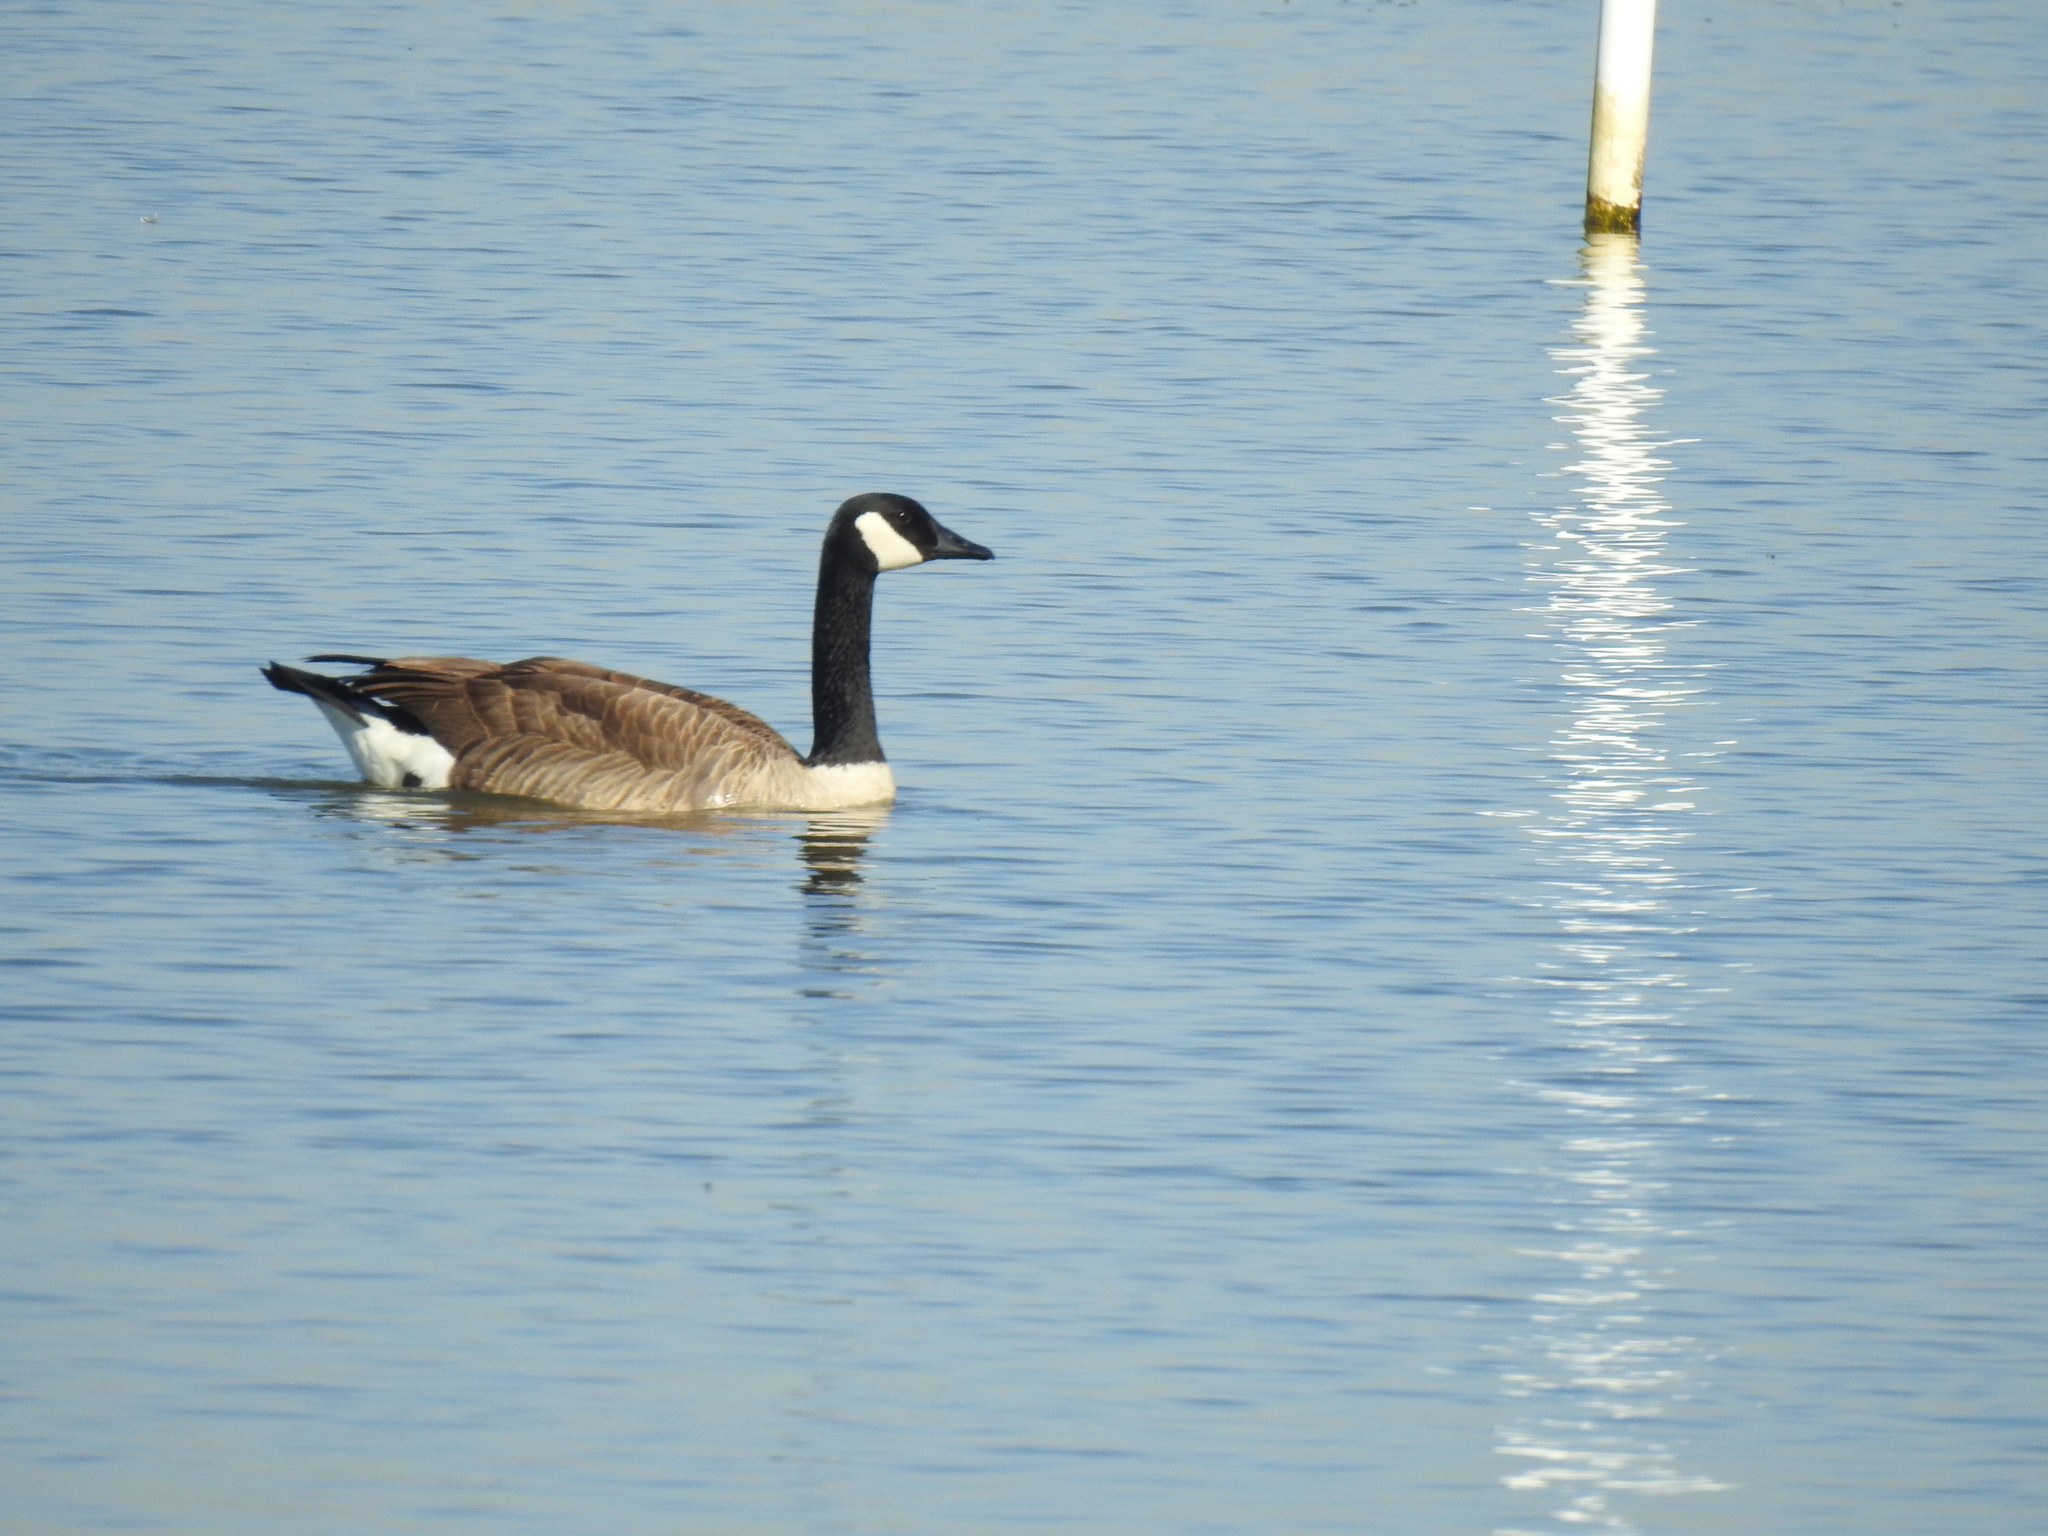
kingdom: Animalia
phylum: Chordata
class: Aves
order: Anseriformes
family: Anatidae
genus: Branta
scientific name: Branta canadensis
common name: Canada goose
